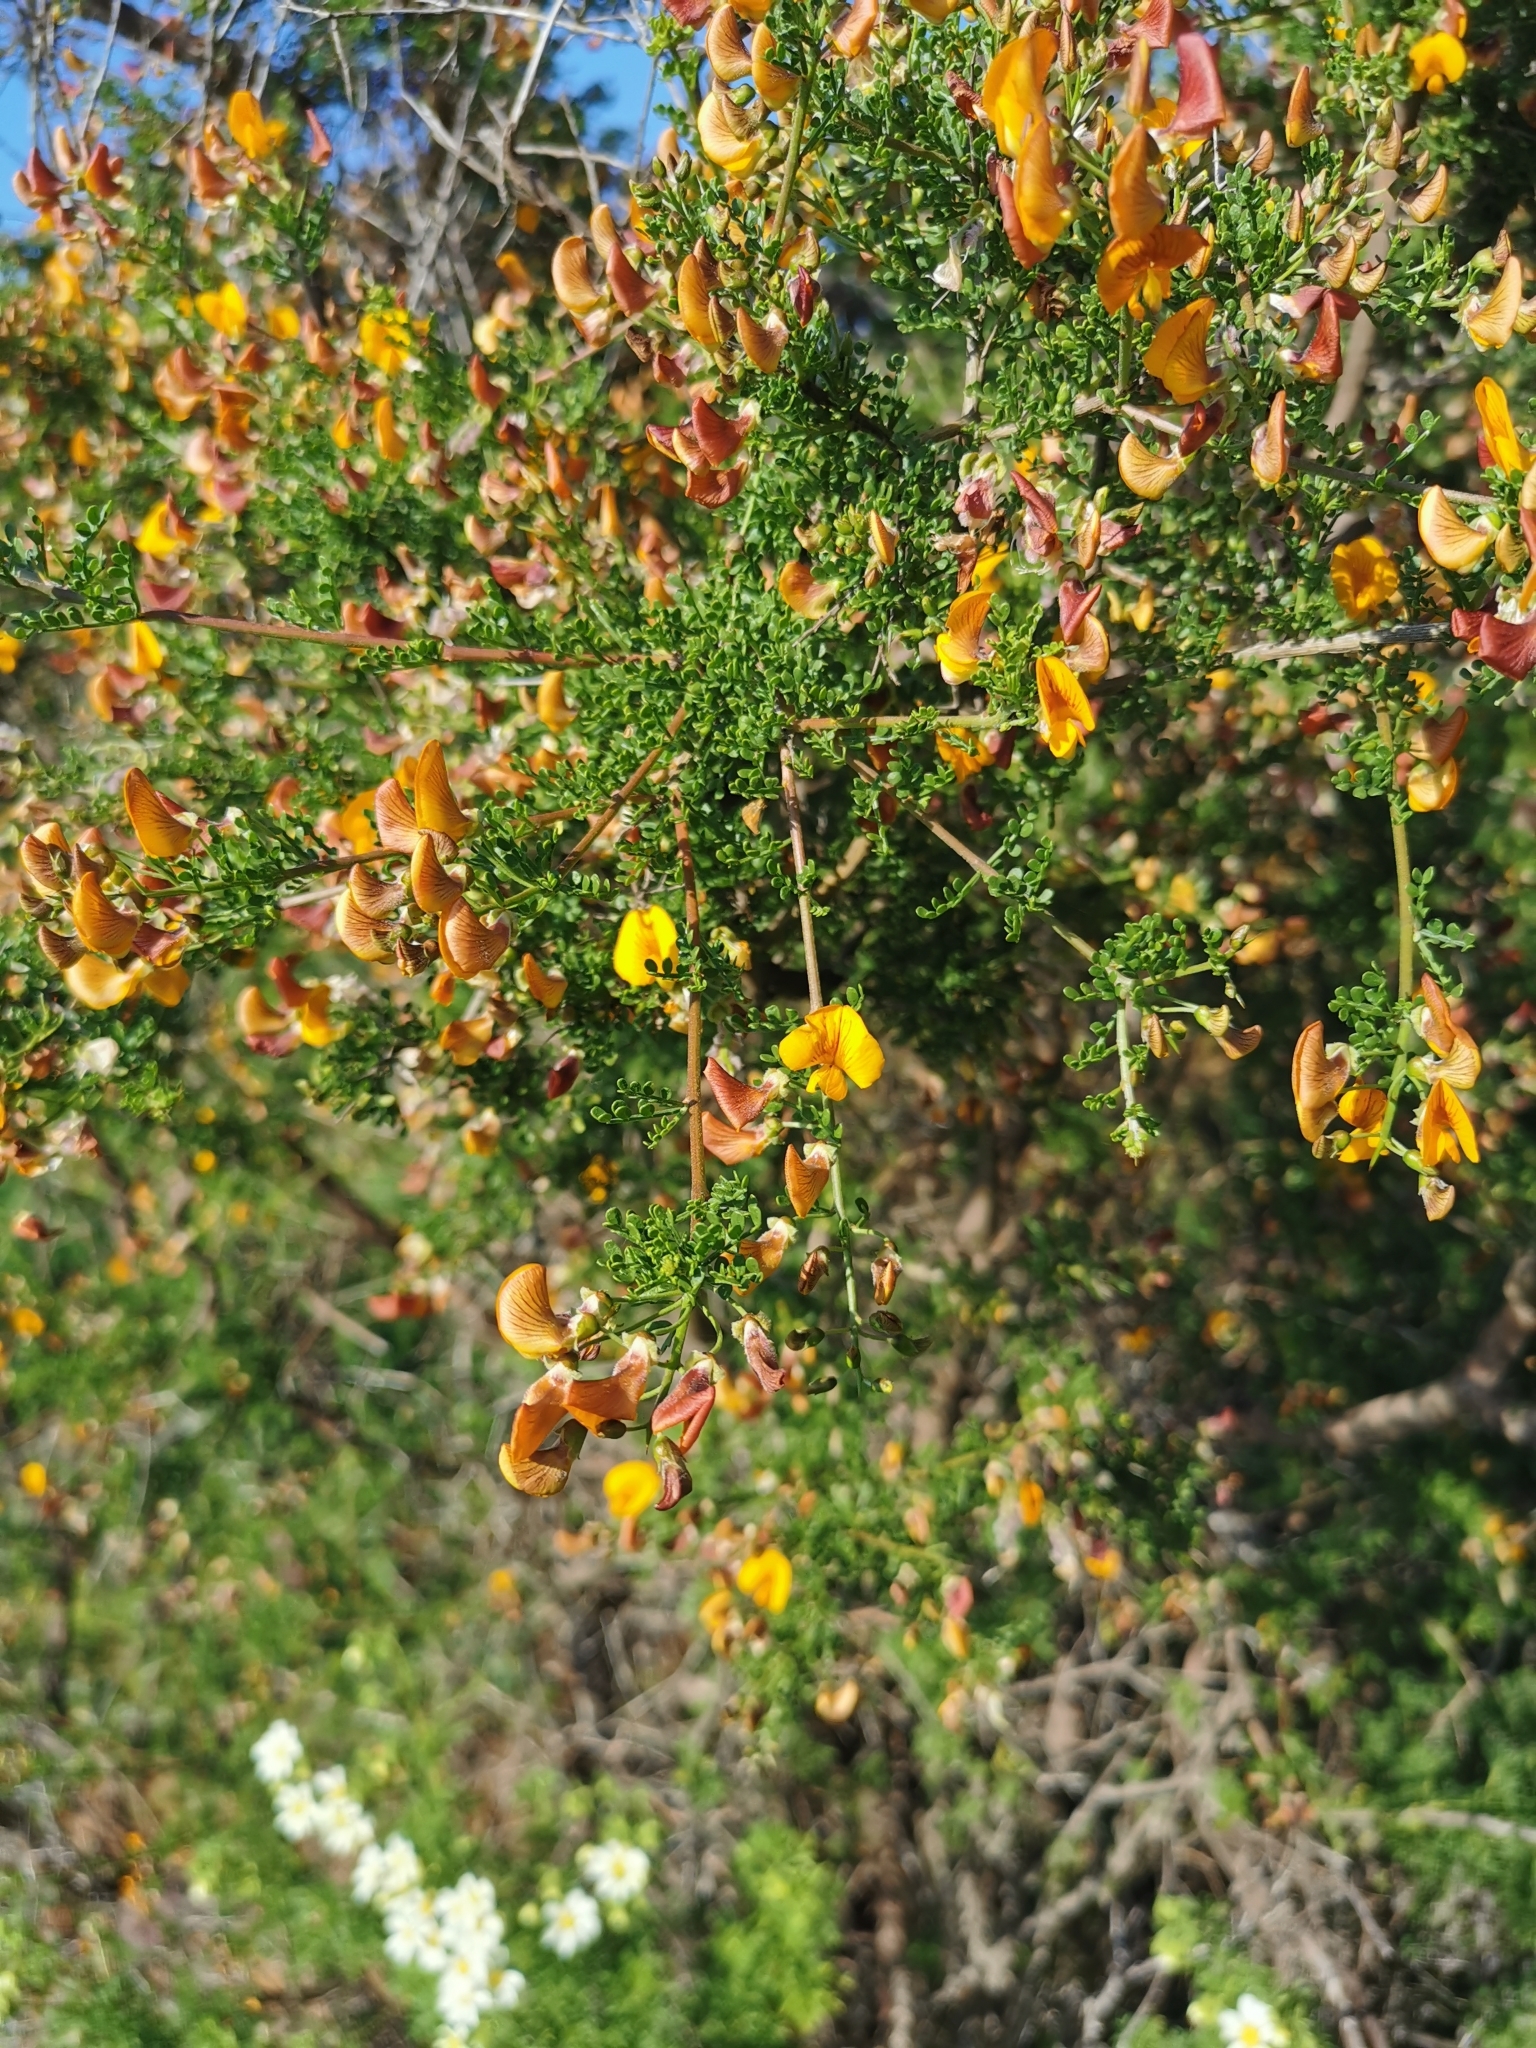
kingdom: Plantae
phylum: Tracheophyta
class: Magnoliopsida
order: Fabales
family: Fabaceae
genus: Adesmia
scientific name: Adesmia microphylla
